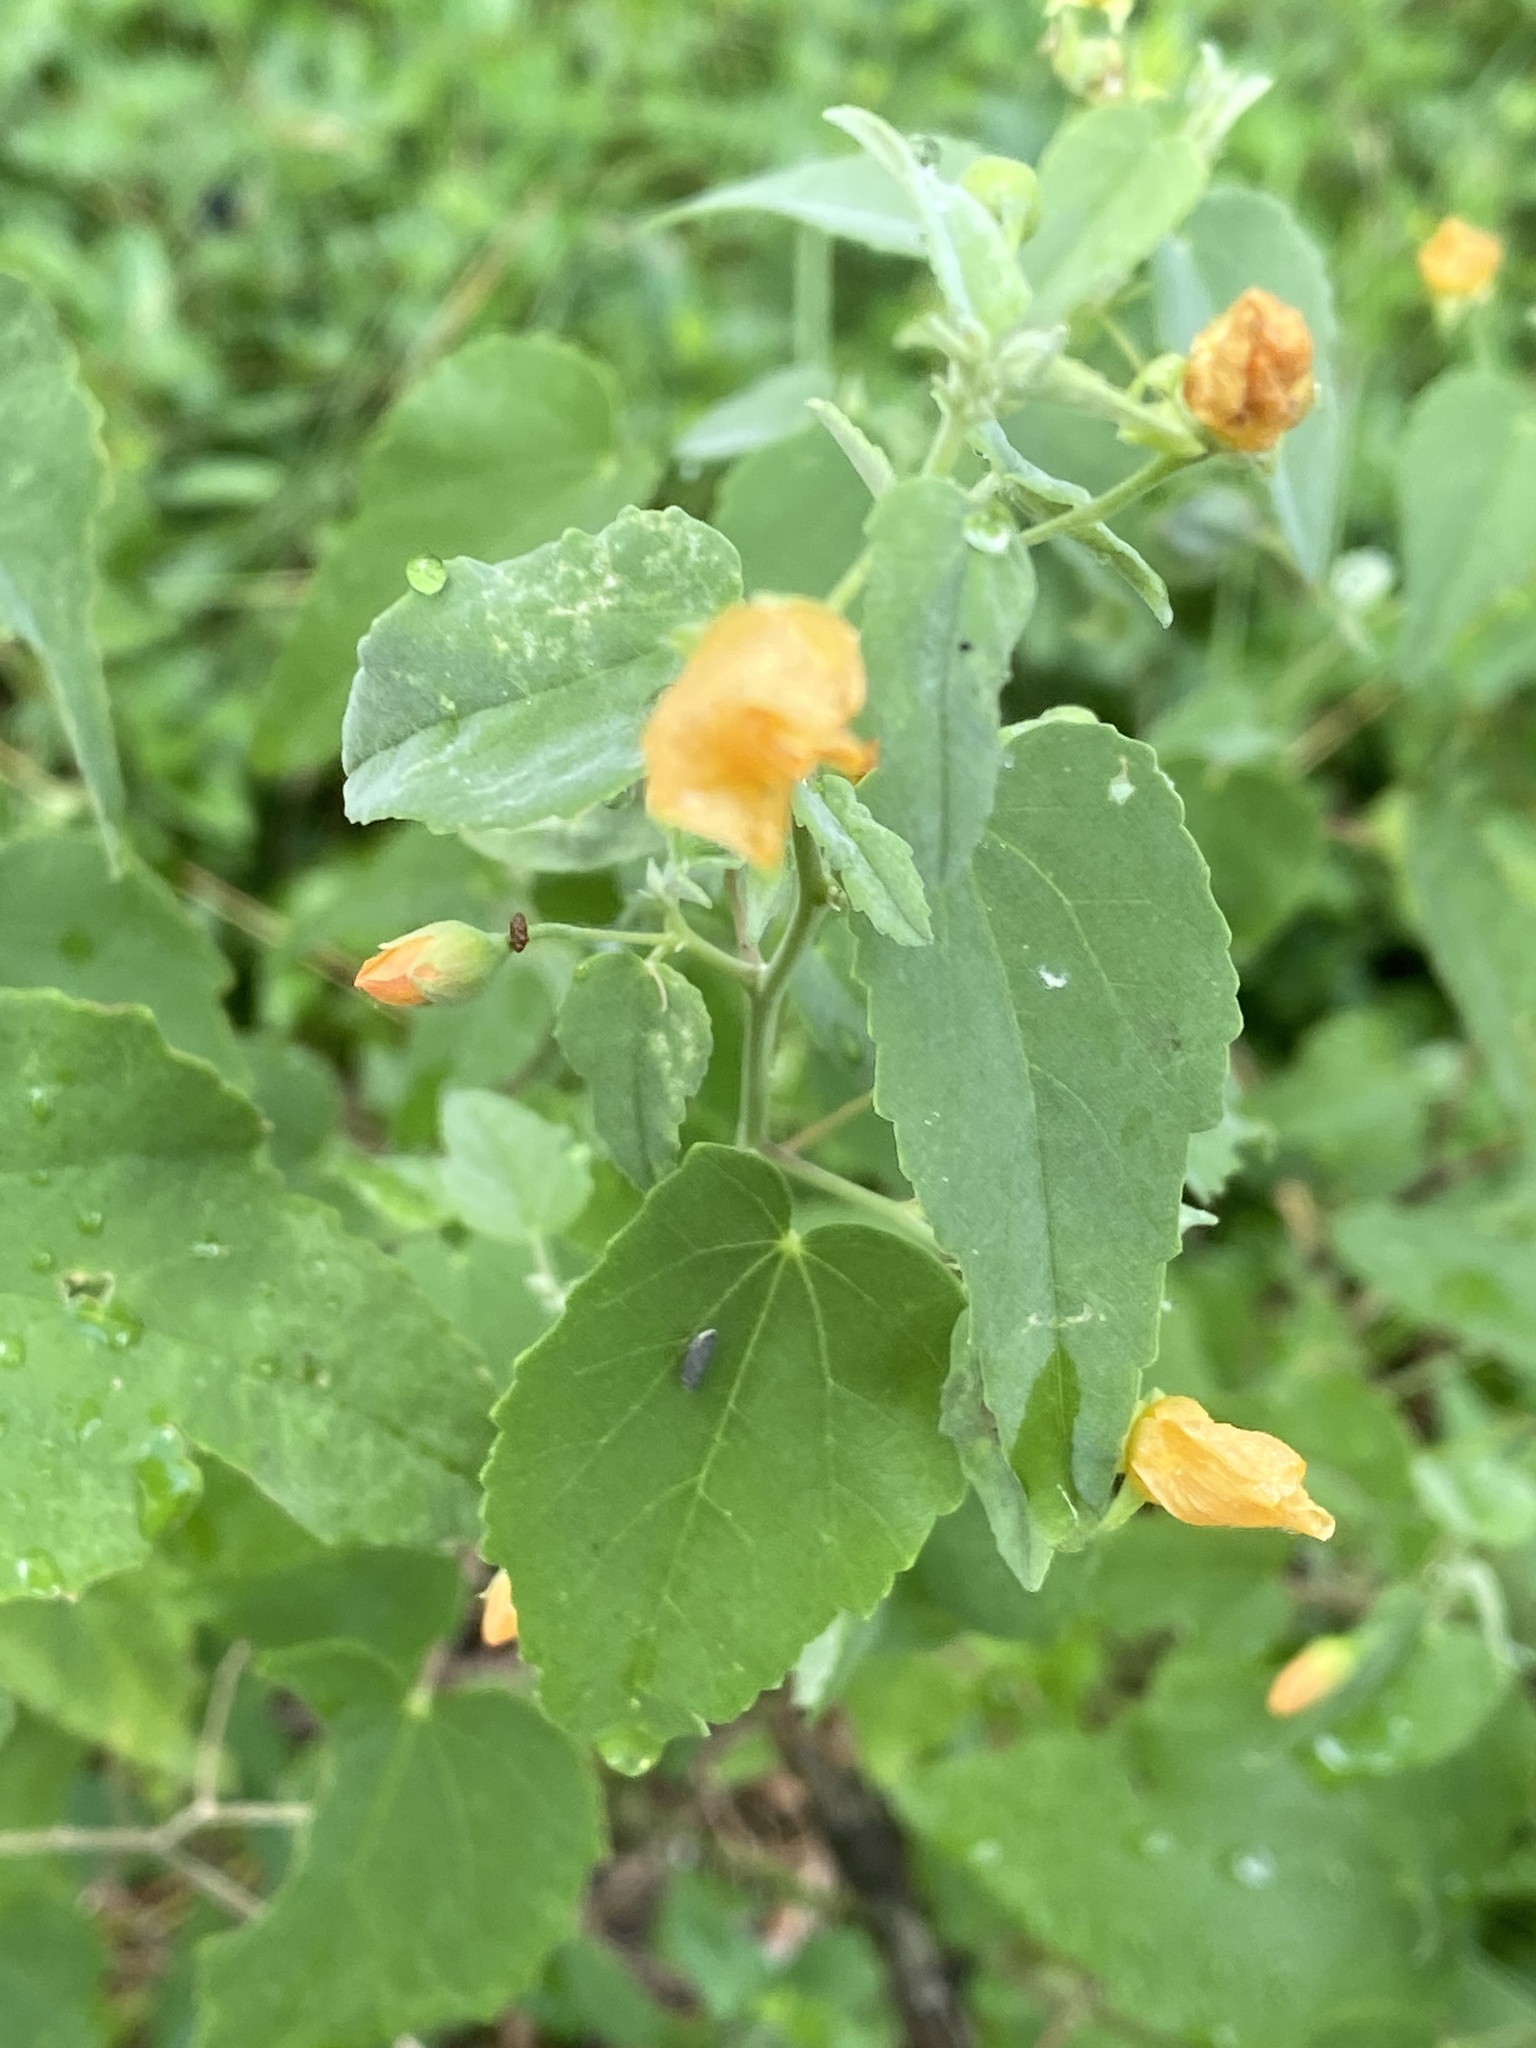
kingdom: Plantae
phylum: Tracheophyta
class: Magnoliopsida
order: Malvales
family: Malvaceae
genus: Abutilon
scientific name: Abutilon fruticosum
